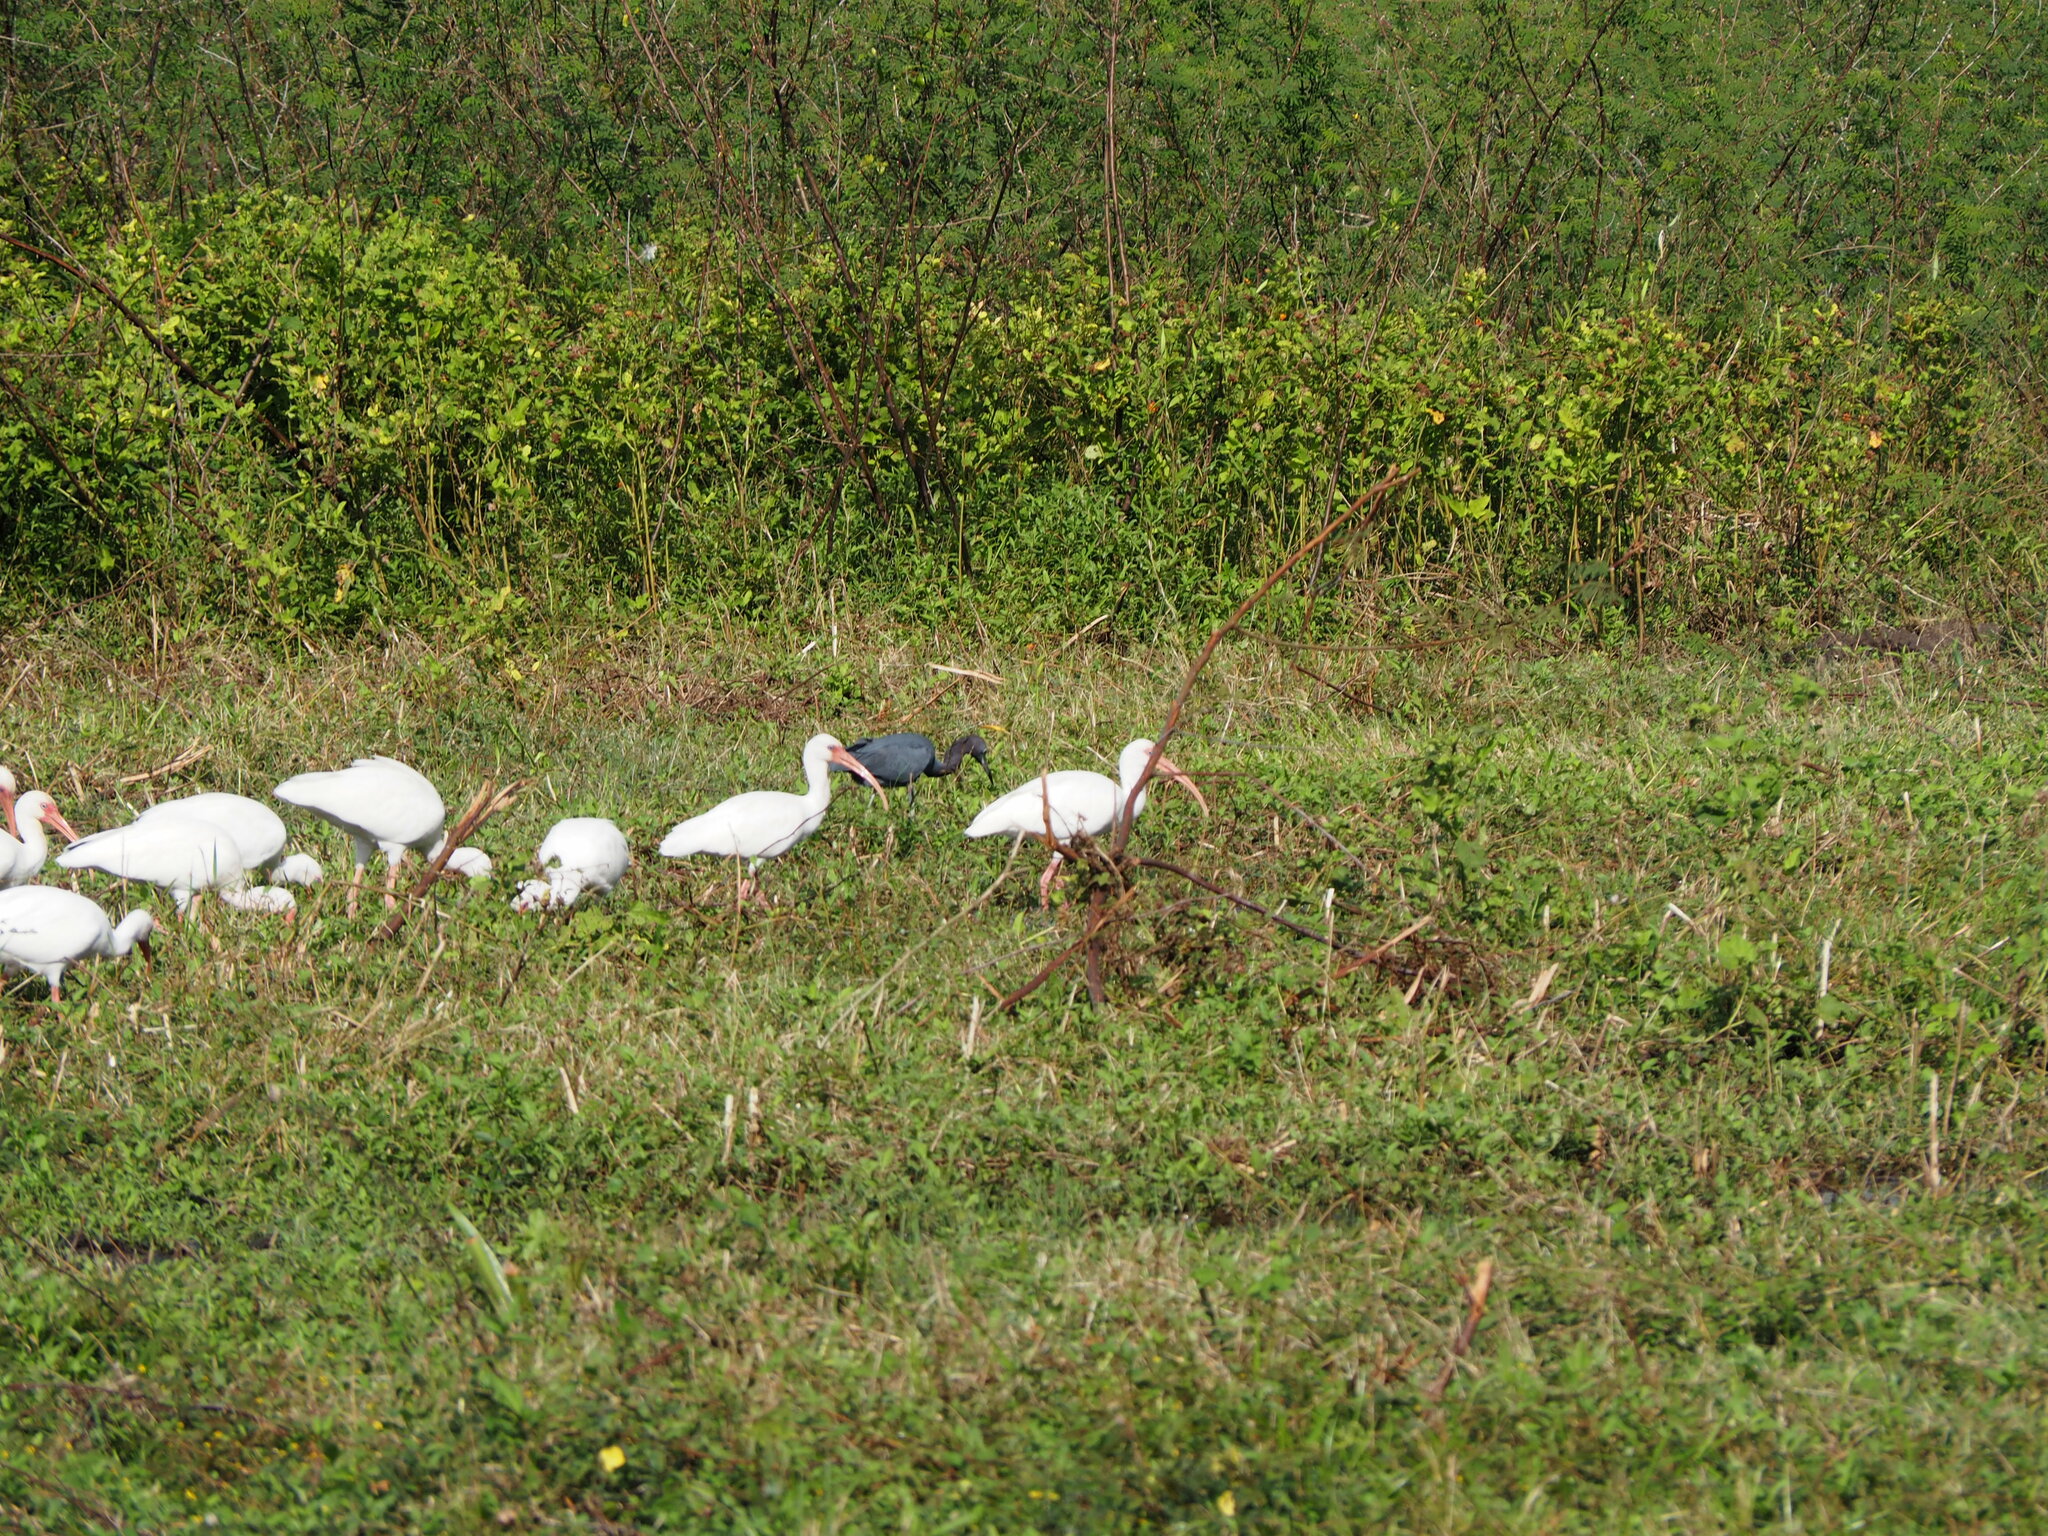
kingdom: Animalia
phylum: Chordata
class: Aves
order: Pelecaniformes
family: Threskiornithidae
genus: Eudocimus
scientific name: Eudocimus albus
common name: White ibis
